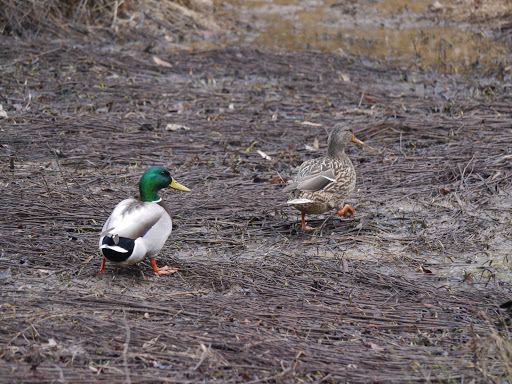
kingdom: Animalia
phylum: Chordata
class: Aves
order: Anseriformes
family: Anatidae
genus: Anas
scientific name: Anas platyrhynchos
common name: Mallard
